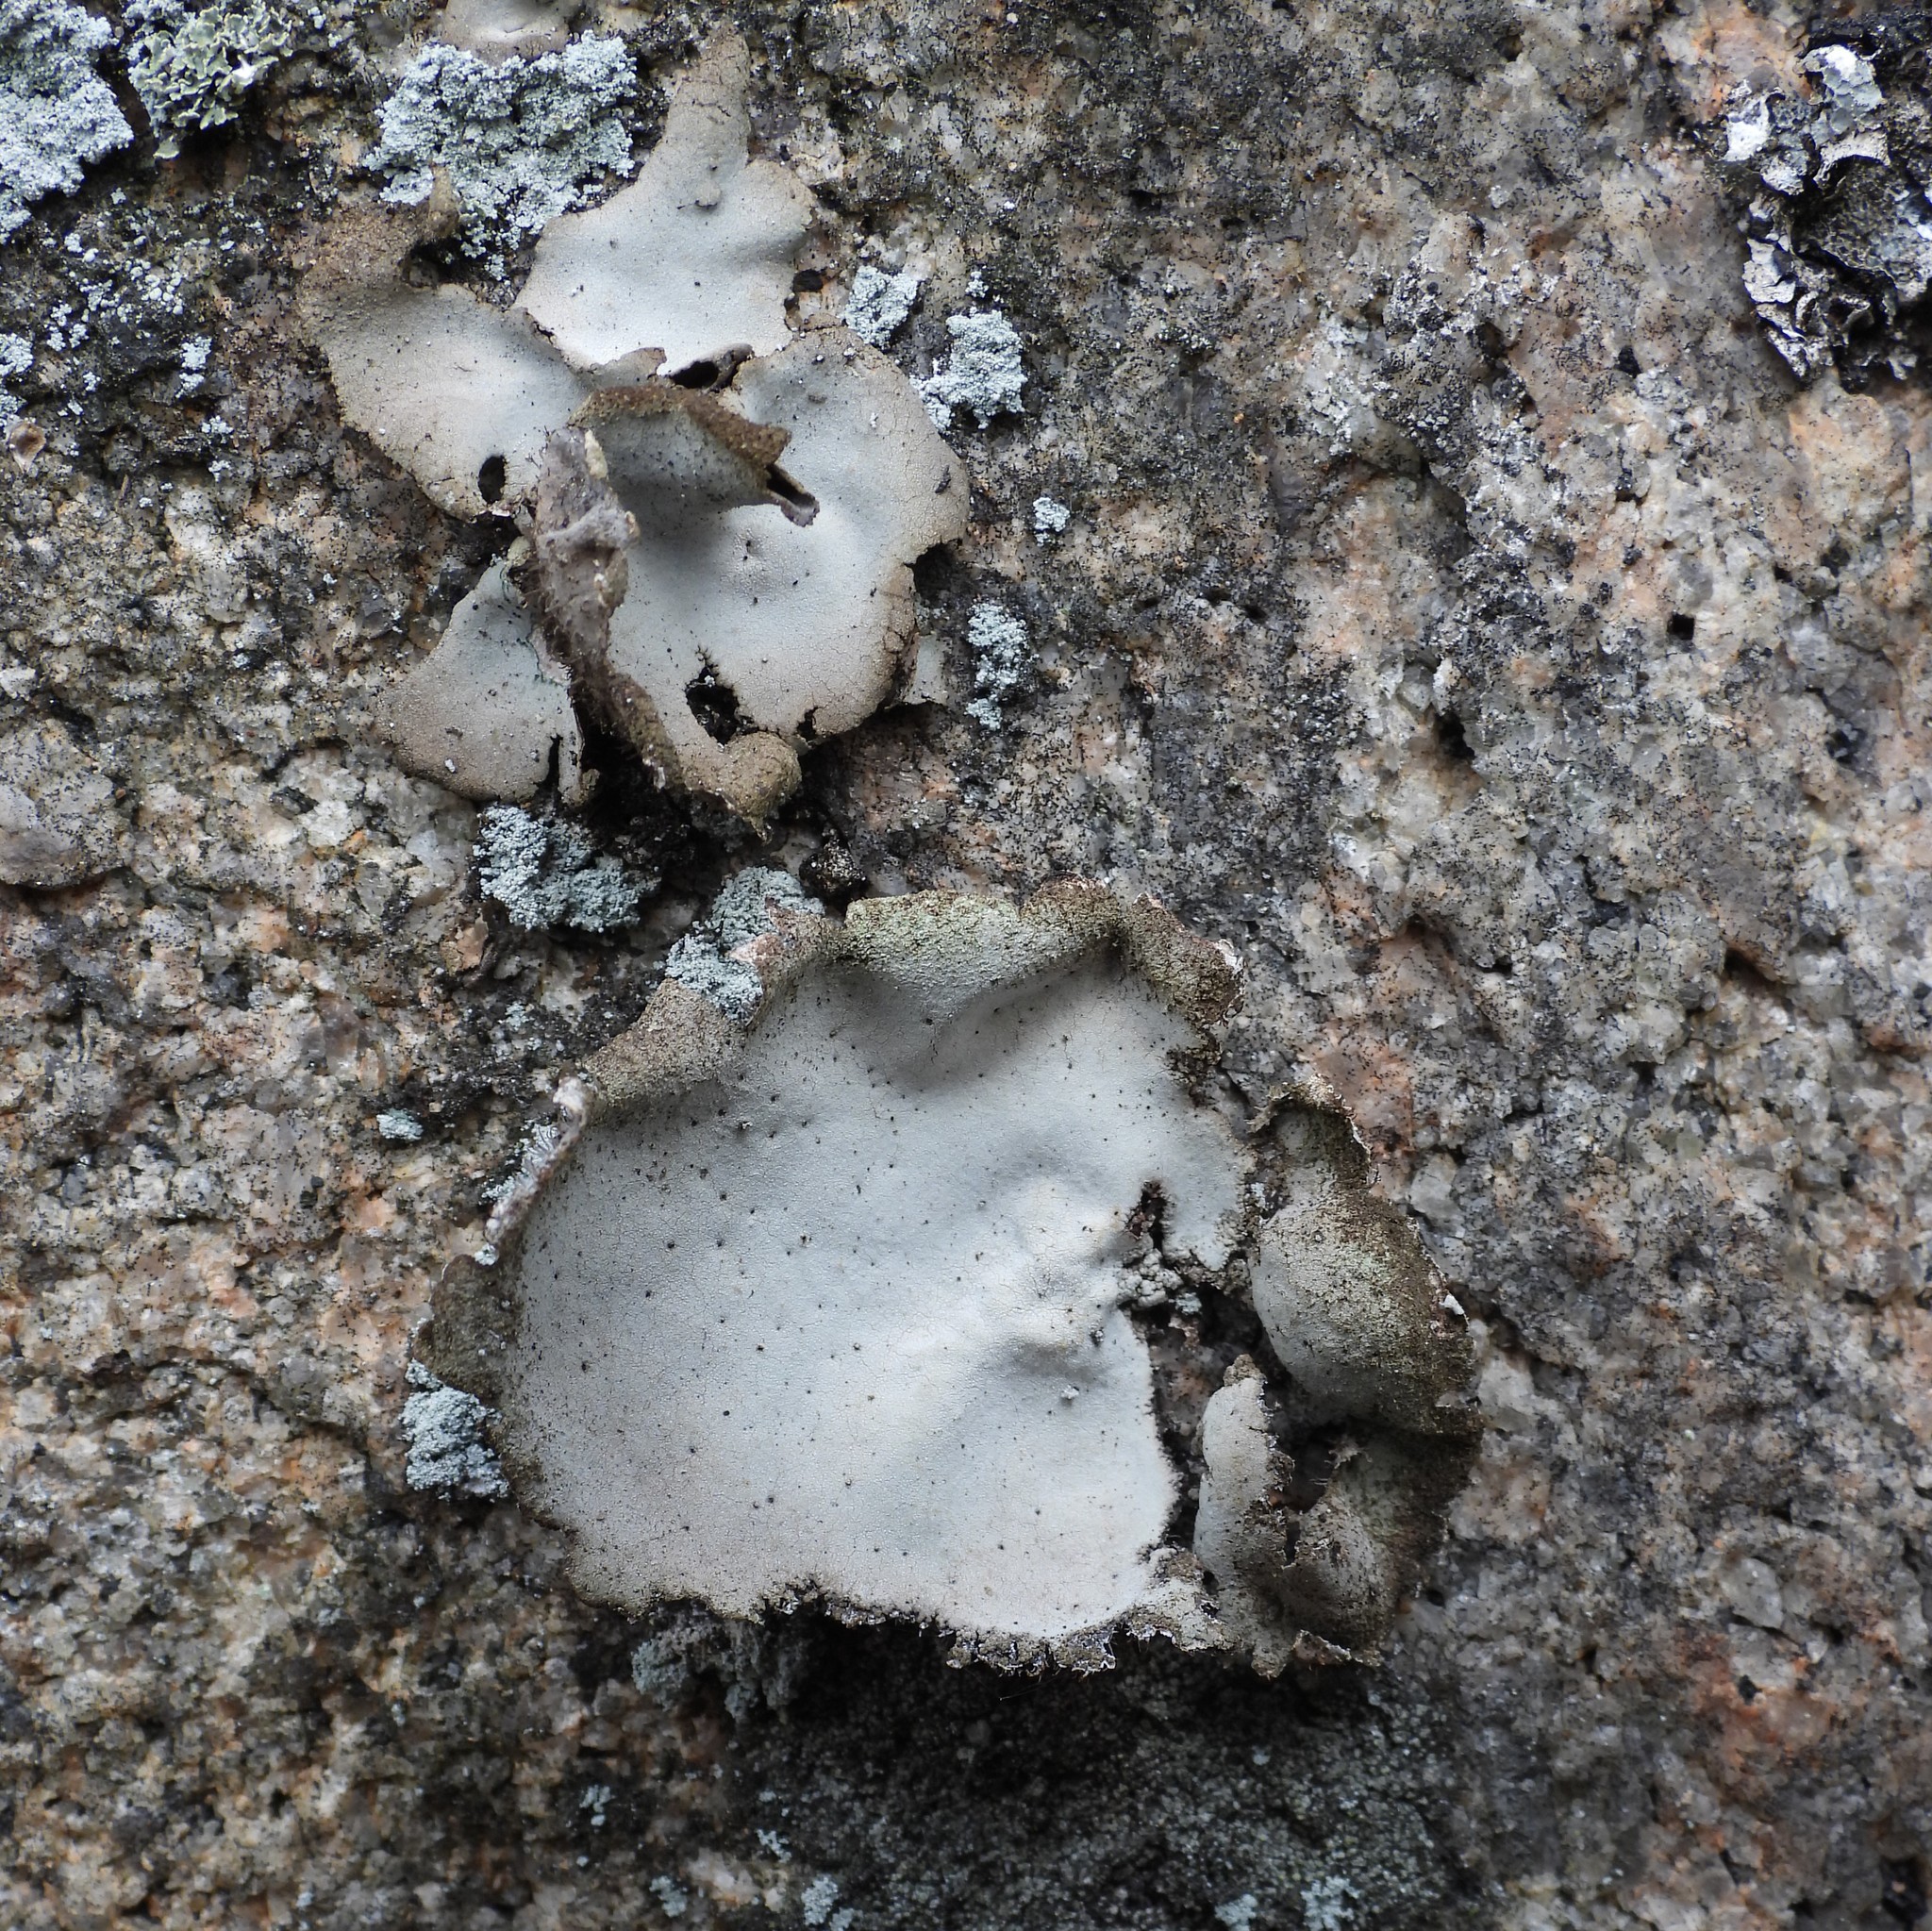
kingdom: Fungi
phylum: Ascomycota
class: Lecanoromycetes
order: Umbilicariales
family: Umbilicariaceae
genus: Umbilicaria
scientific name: Umbilicaria hirsuta
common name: Granulating rocktripe lichen
